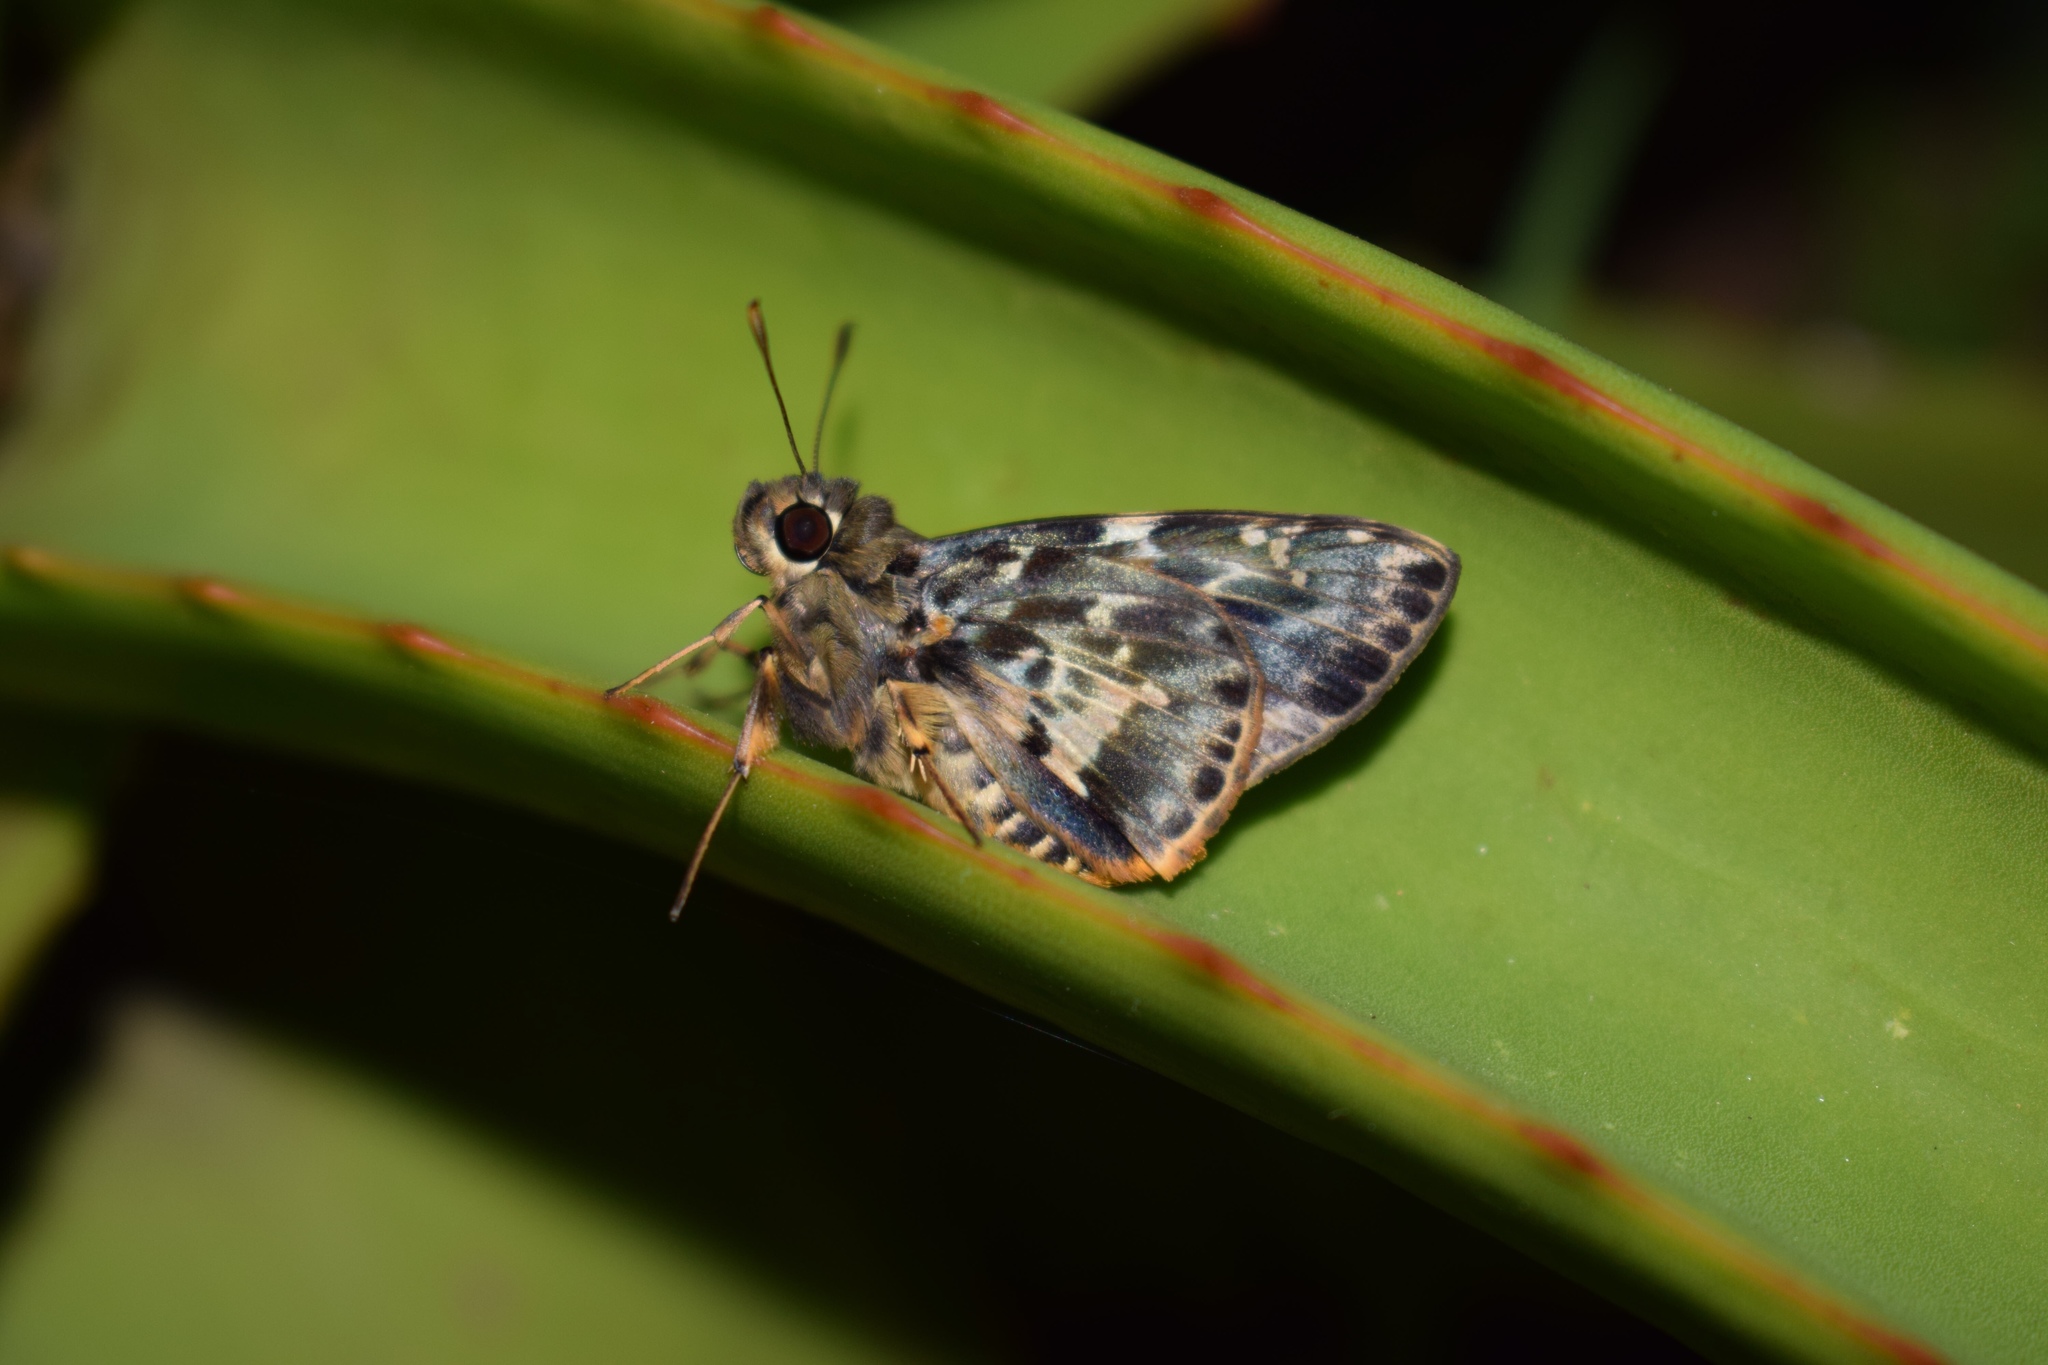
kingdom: Animalia
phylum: Arthropoda
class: Insecta
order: Lepidoptera
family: Hesperiidae
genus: Artitropa
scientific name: Artitropa erinnys
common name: Bush nightfighter
